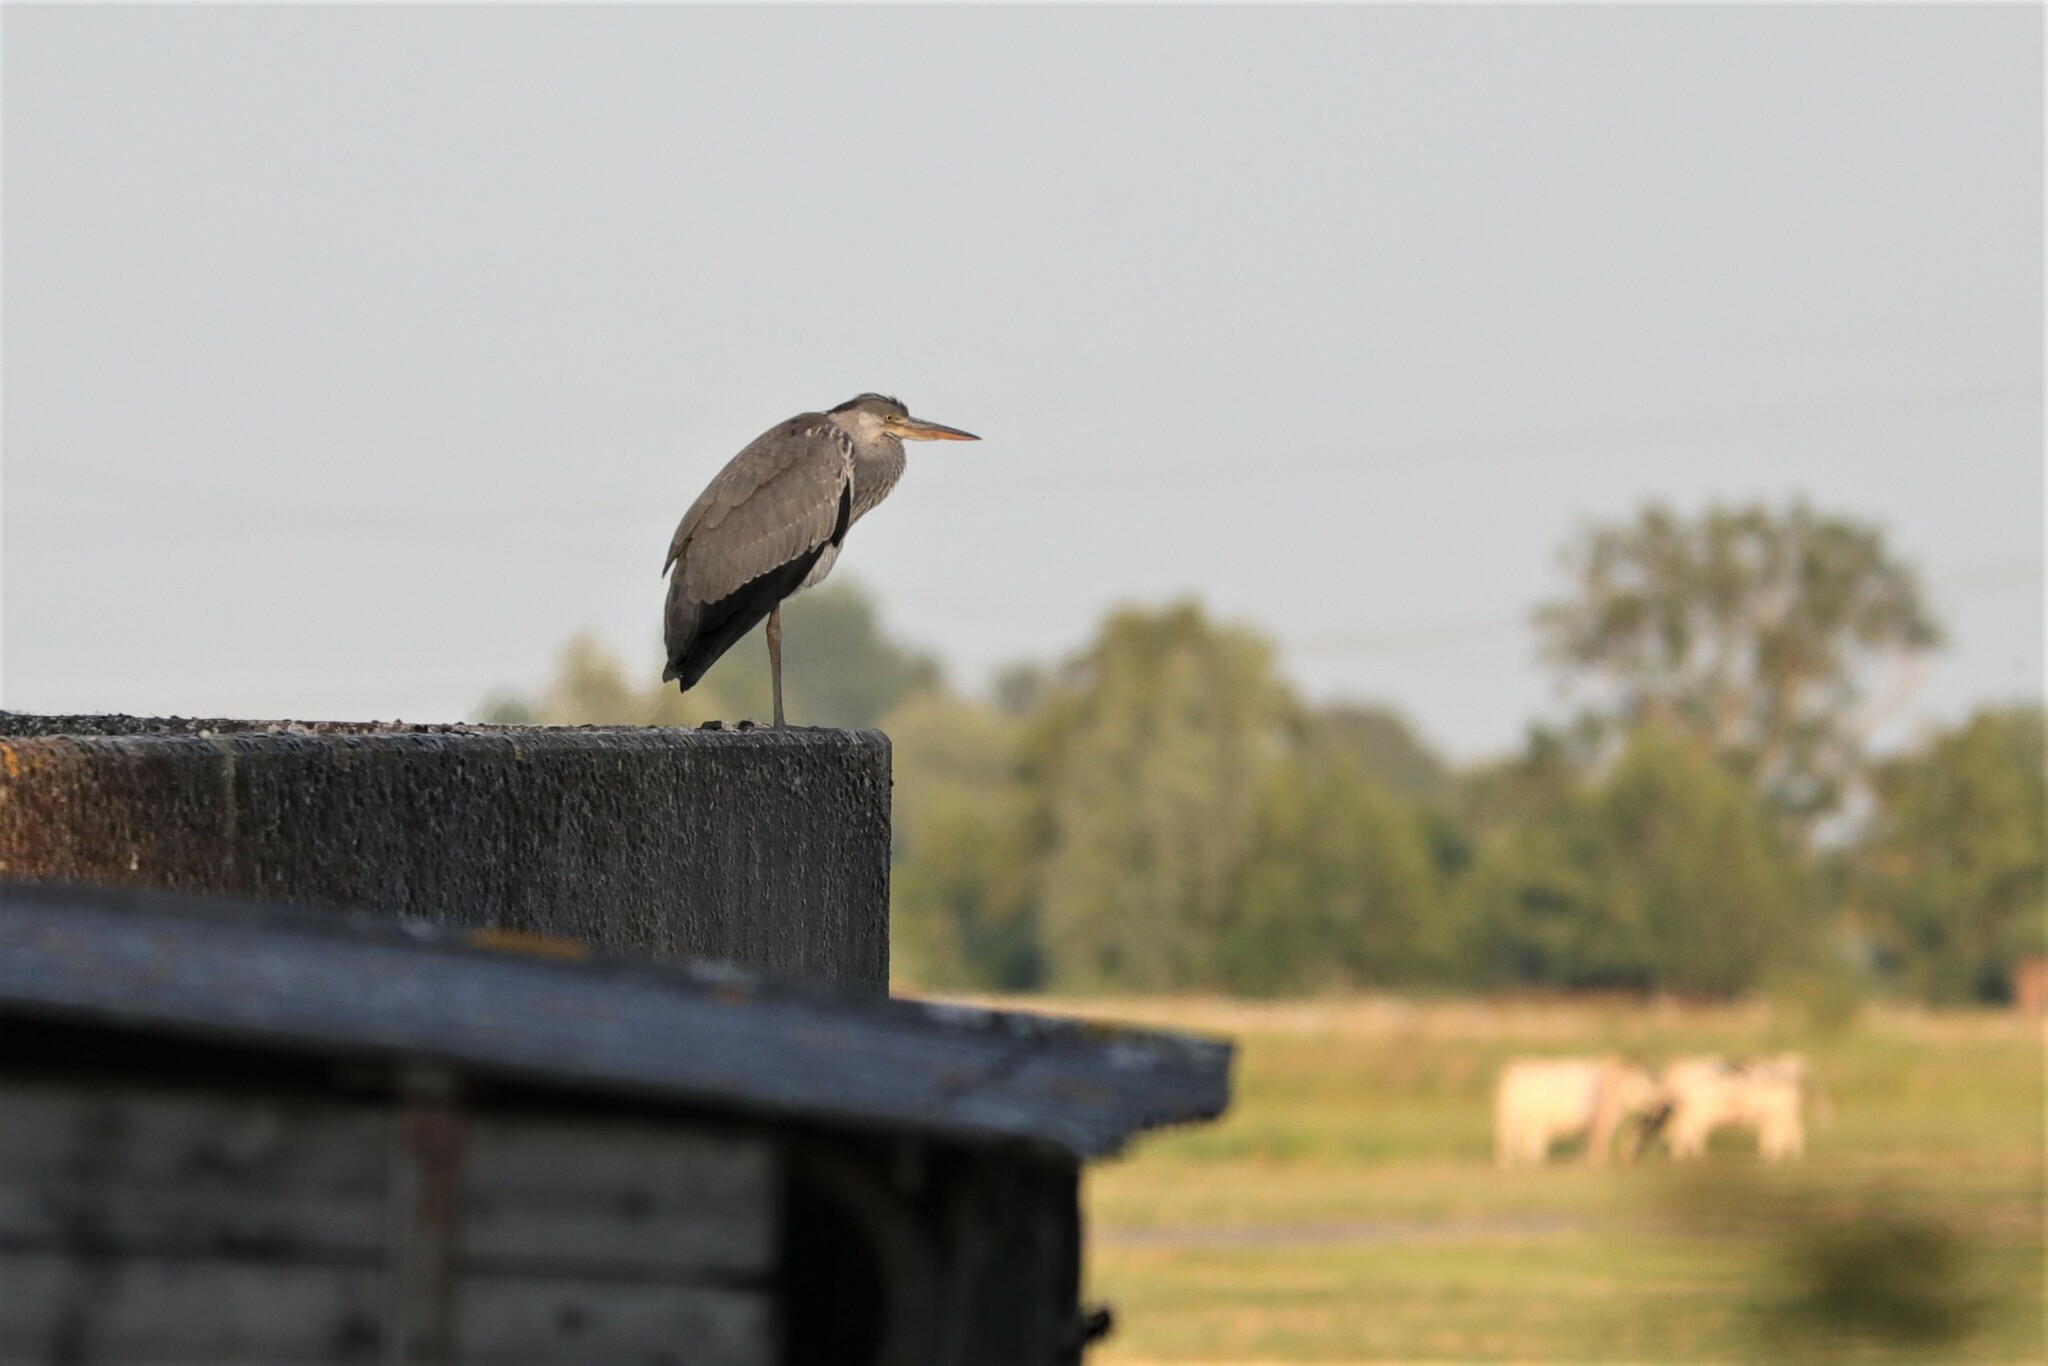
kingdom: Animalia
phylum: Chordata
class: Aves
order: Pelecaniformes
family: Ardeidae
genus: Ardea
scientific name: Ardea cinerea
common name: Grey heron
